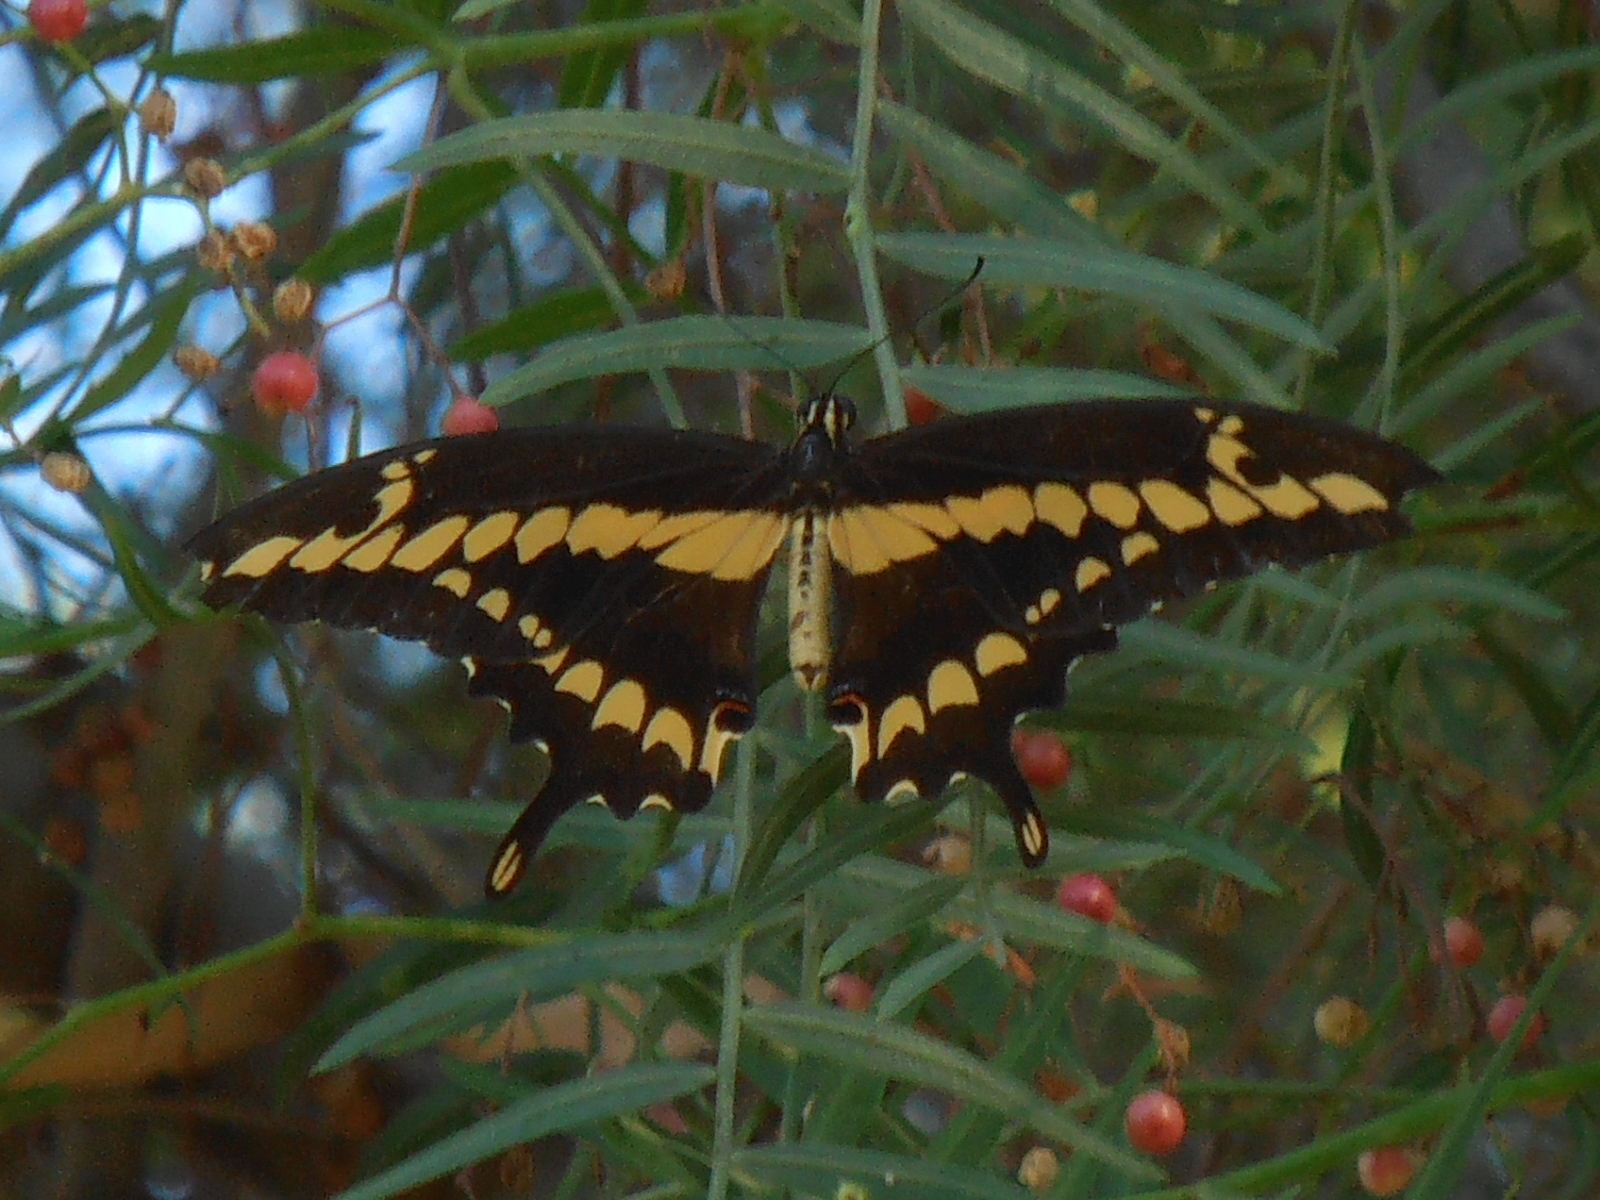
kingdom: Animalia
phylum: Arthropoda
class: Insecta
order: Lepidoptera
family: Papilionidae
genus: Papilio
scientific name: Papilio rumiko
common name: Western giant swallowtail
